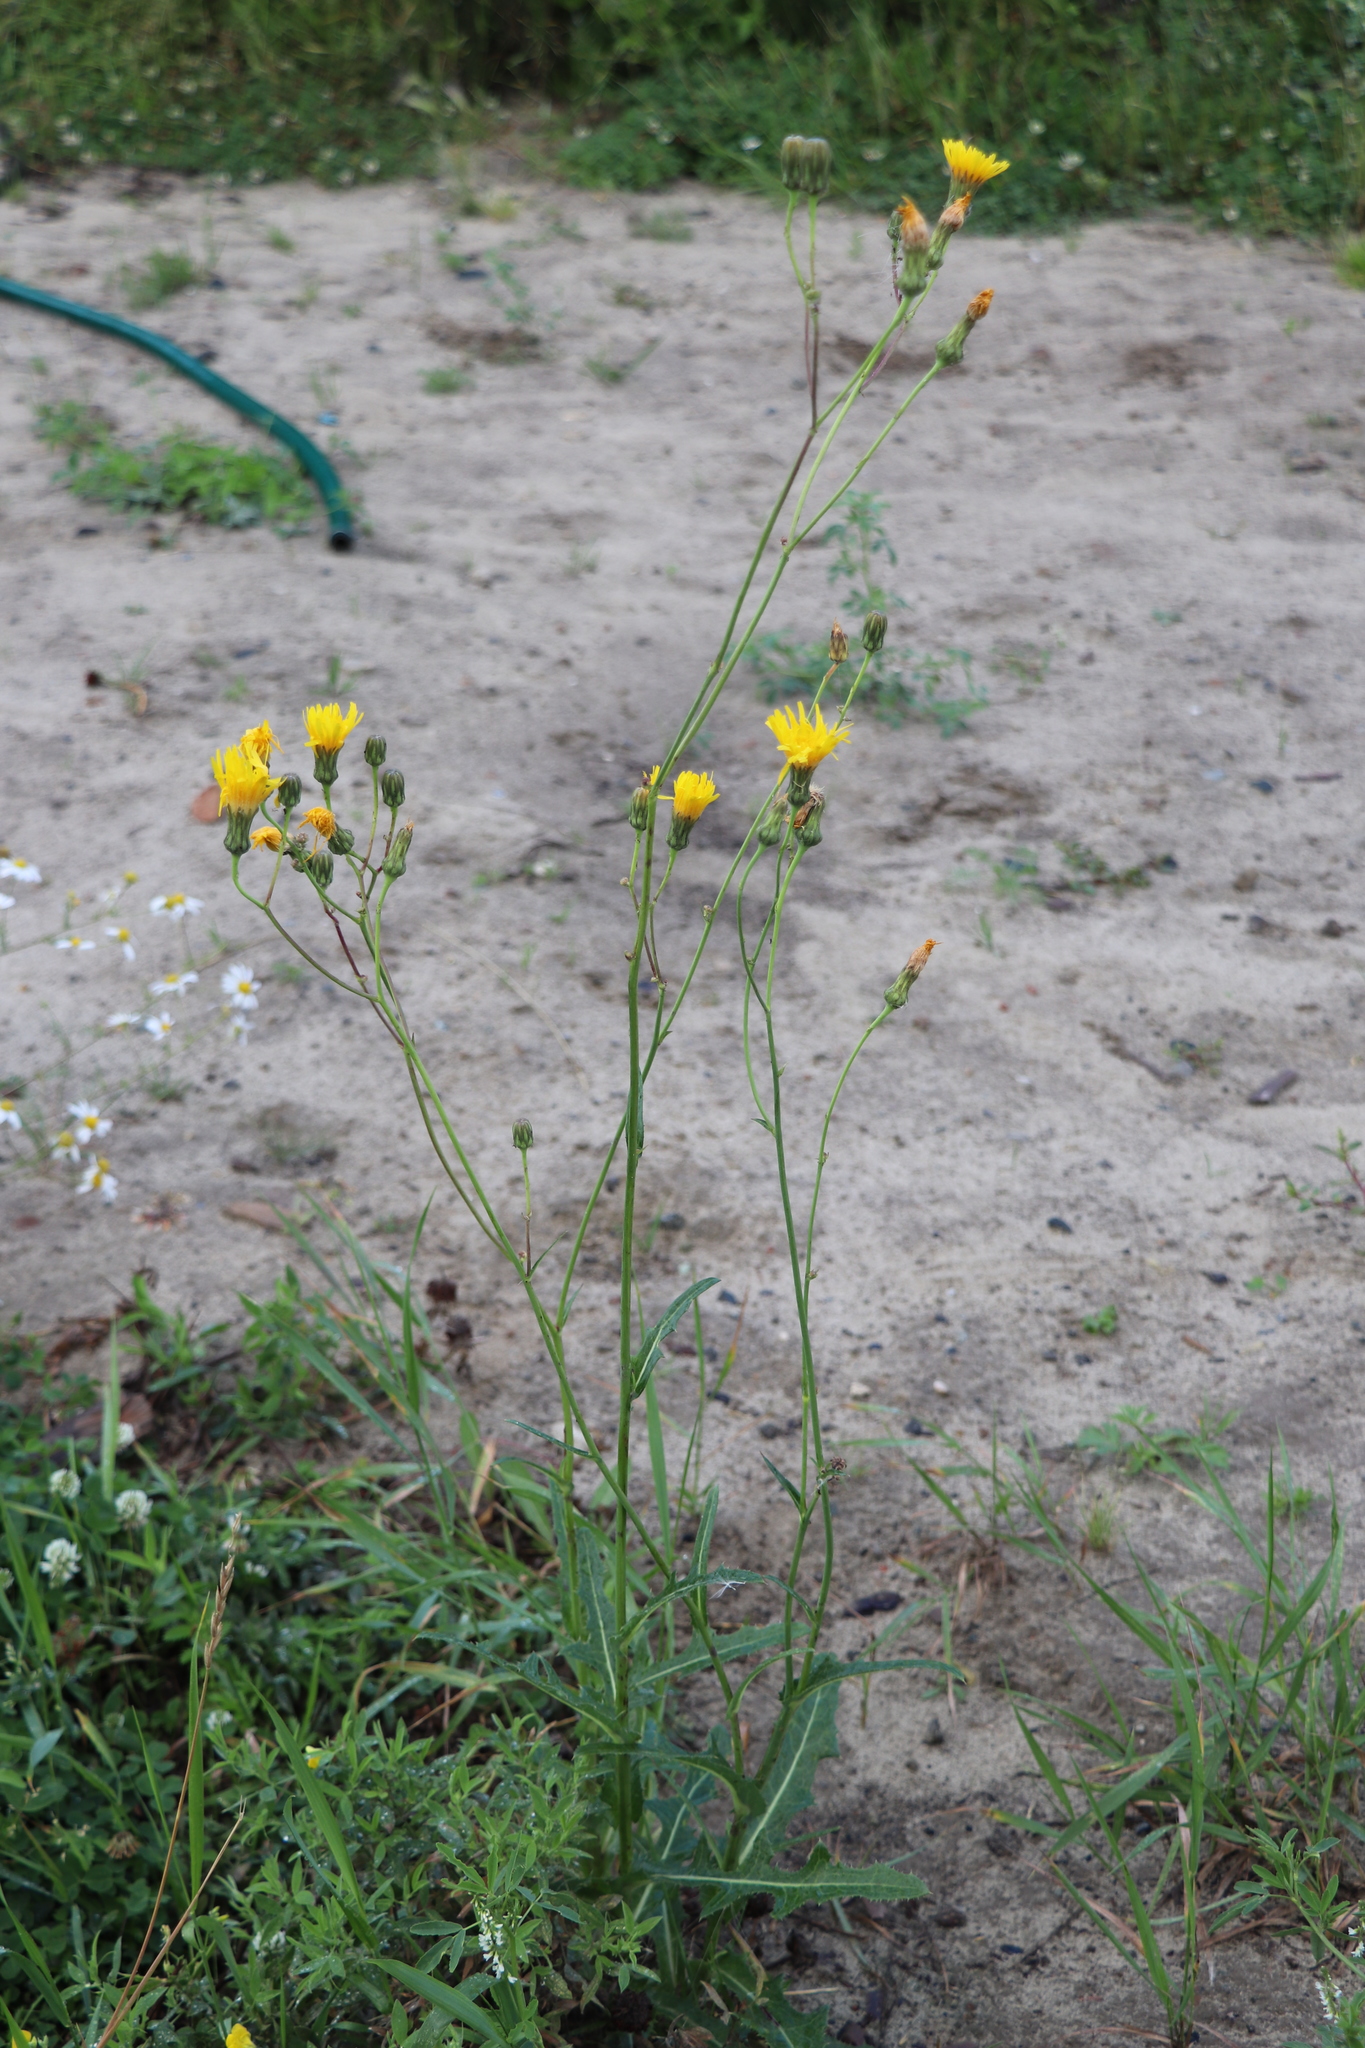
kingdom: Plantae
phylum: Tracheophyta
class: Magnoliopsida
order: Asterales
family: Asteraceae
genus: Sonchus
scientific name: Sonchus arvensis
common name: Perennial sow-thistle
